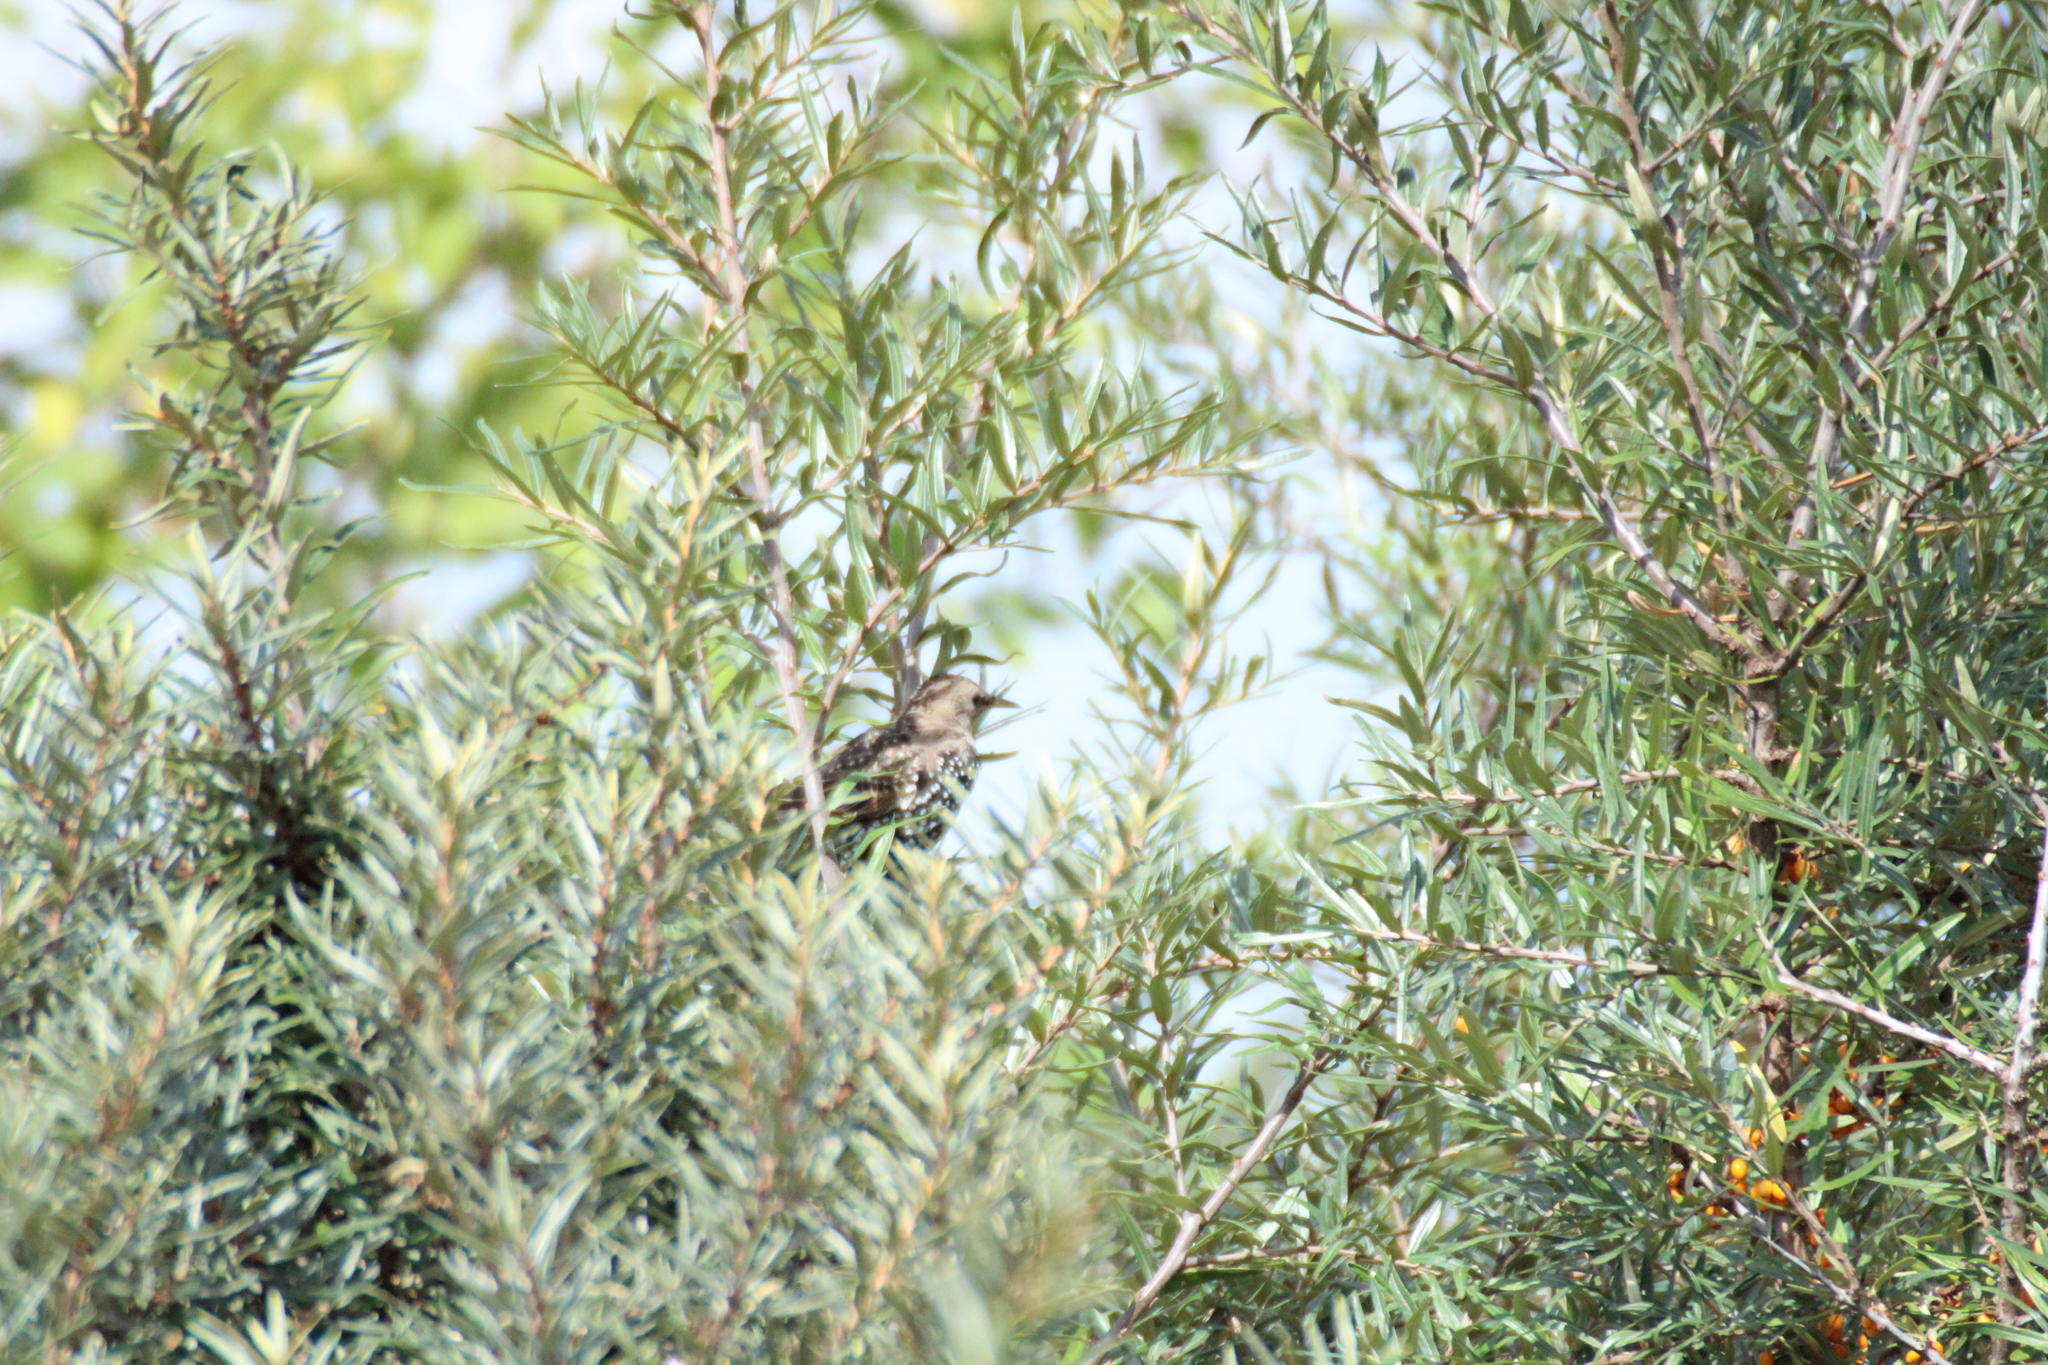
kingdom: Animalia
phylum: Chordata
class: Aves
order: Passeriformes
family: Sturnidae
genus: Sturnus
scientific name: Sturnus vulgaris
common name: Common starling
